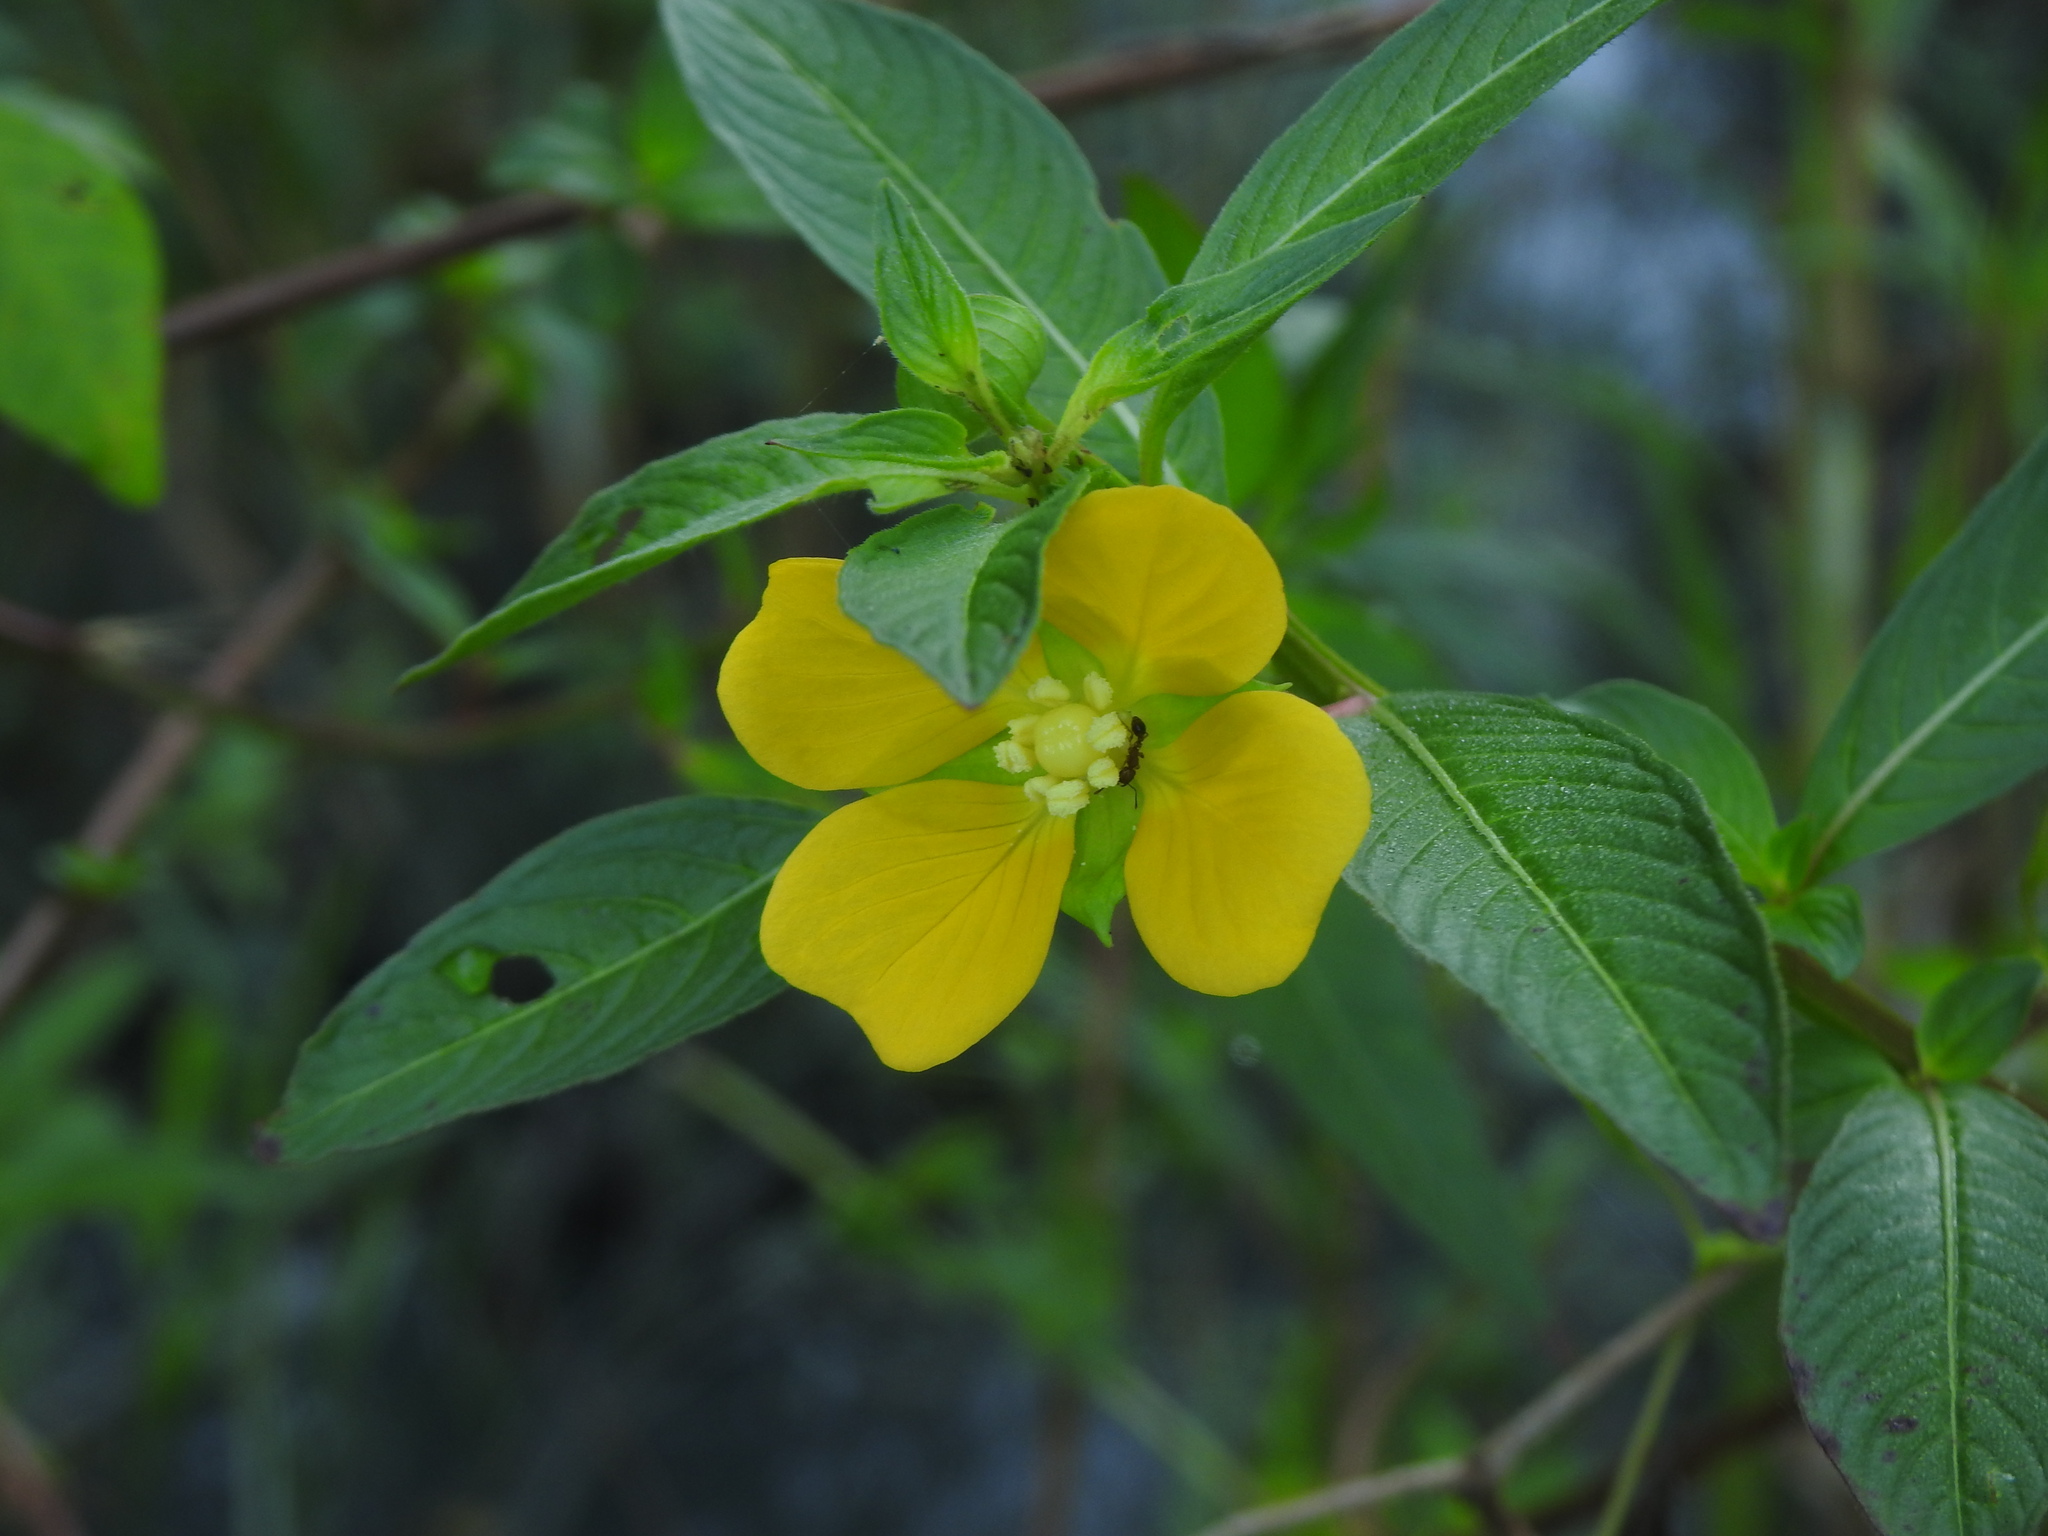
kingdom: Plantae
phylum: Tracheophyta
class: Magnoliopsida
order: Myrtales
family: Onagraceae
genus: Ludwigia
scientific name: Ludwigia octovalvis
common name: Water-primrose
